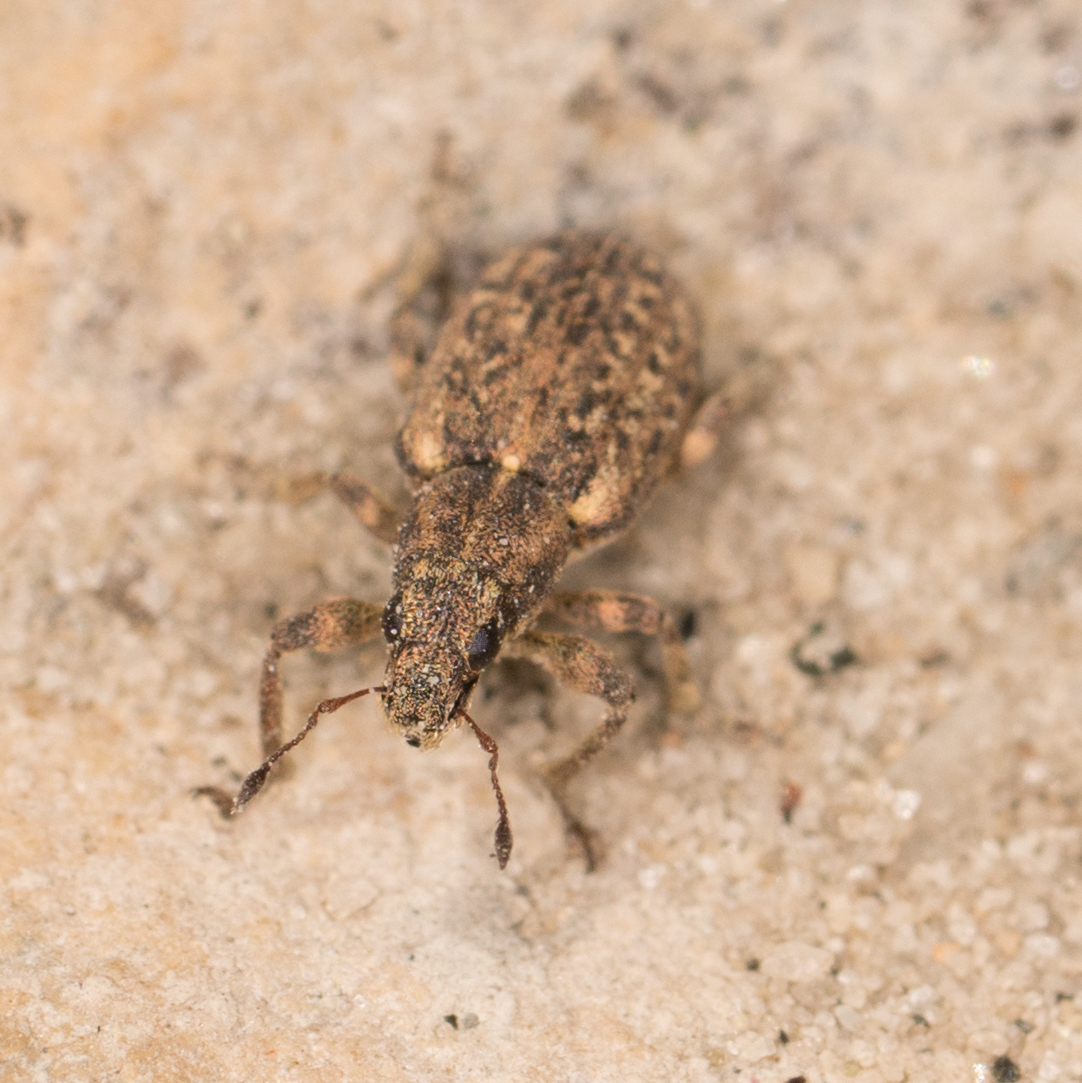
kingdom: Animalia
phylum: Arthropoda
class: Insecta
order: Coleoptera
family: Curculionidae
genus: Sitona
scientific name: Sitona cylindricollis
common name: Weevil
